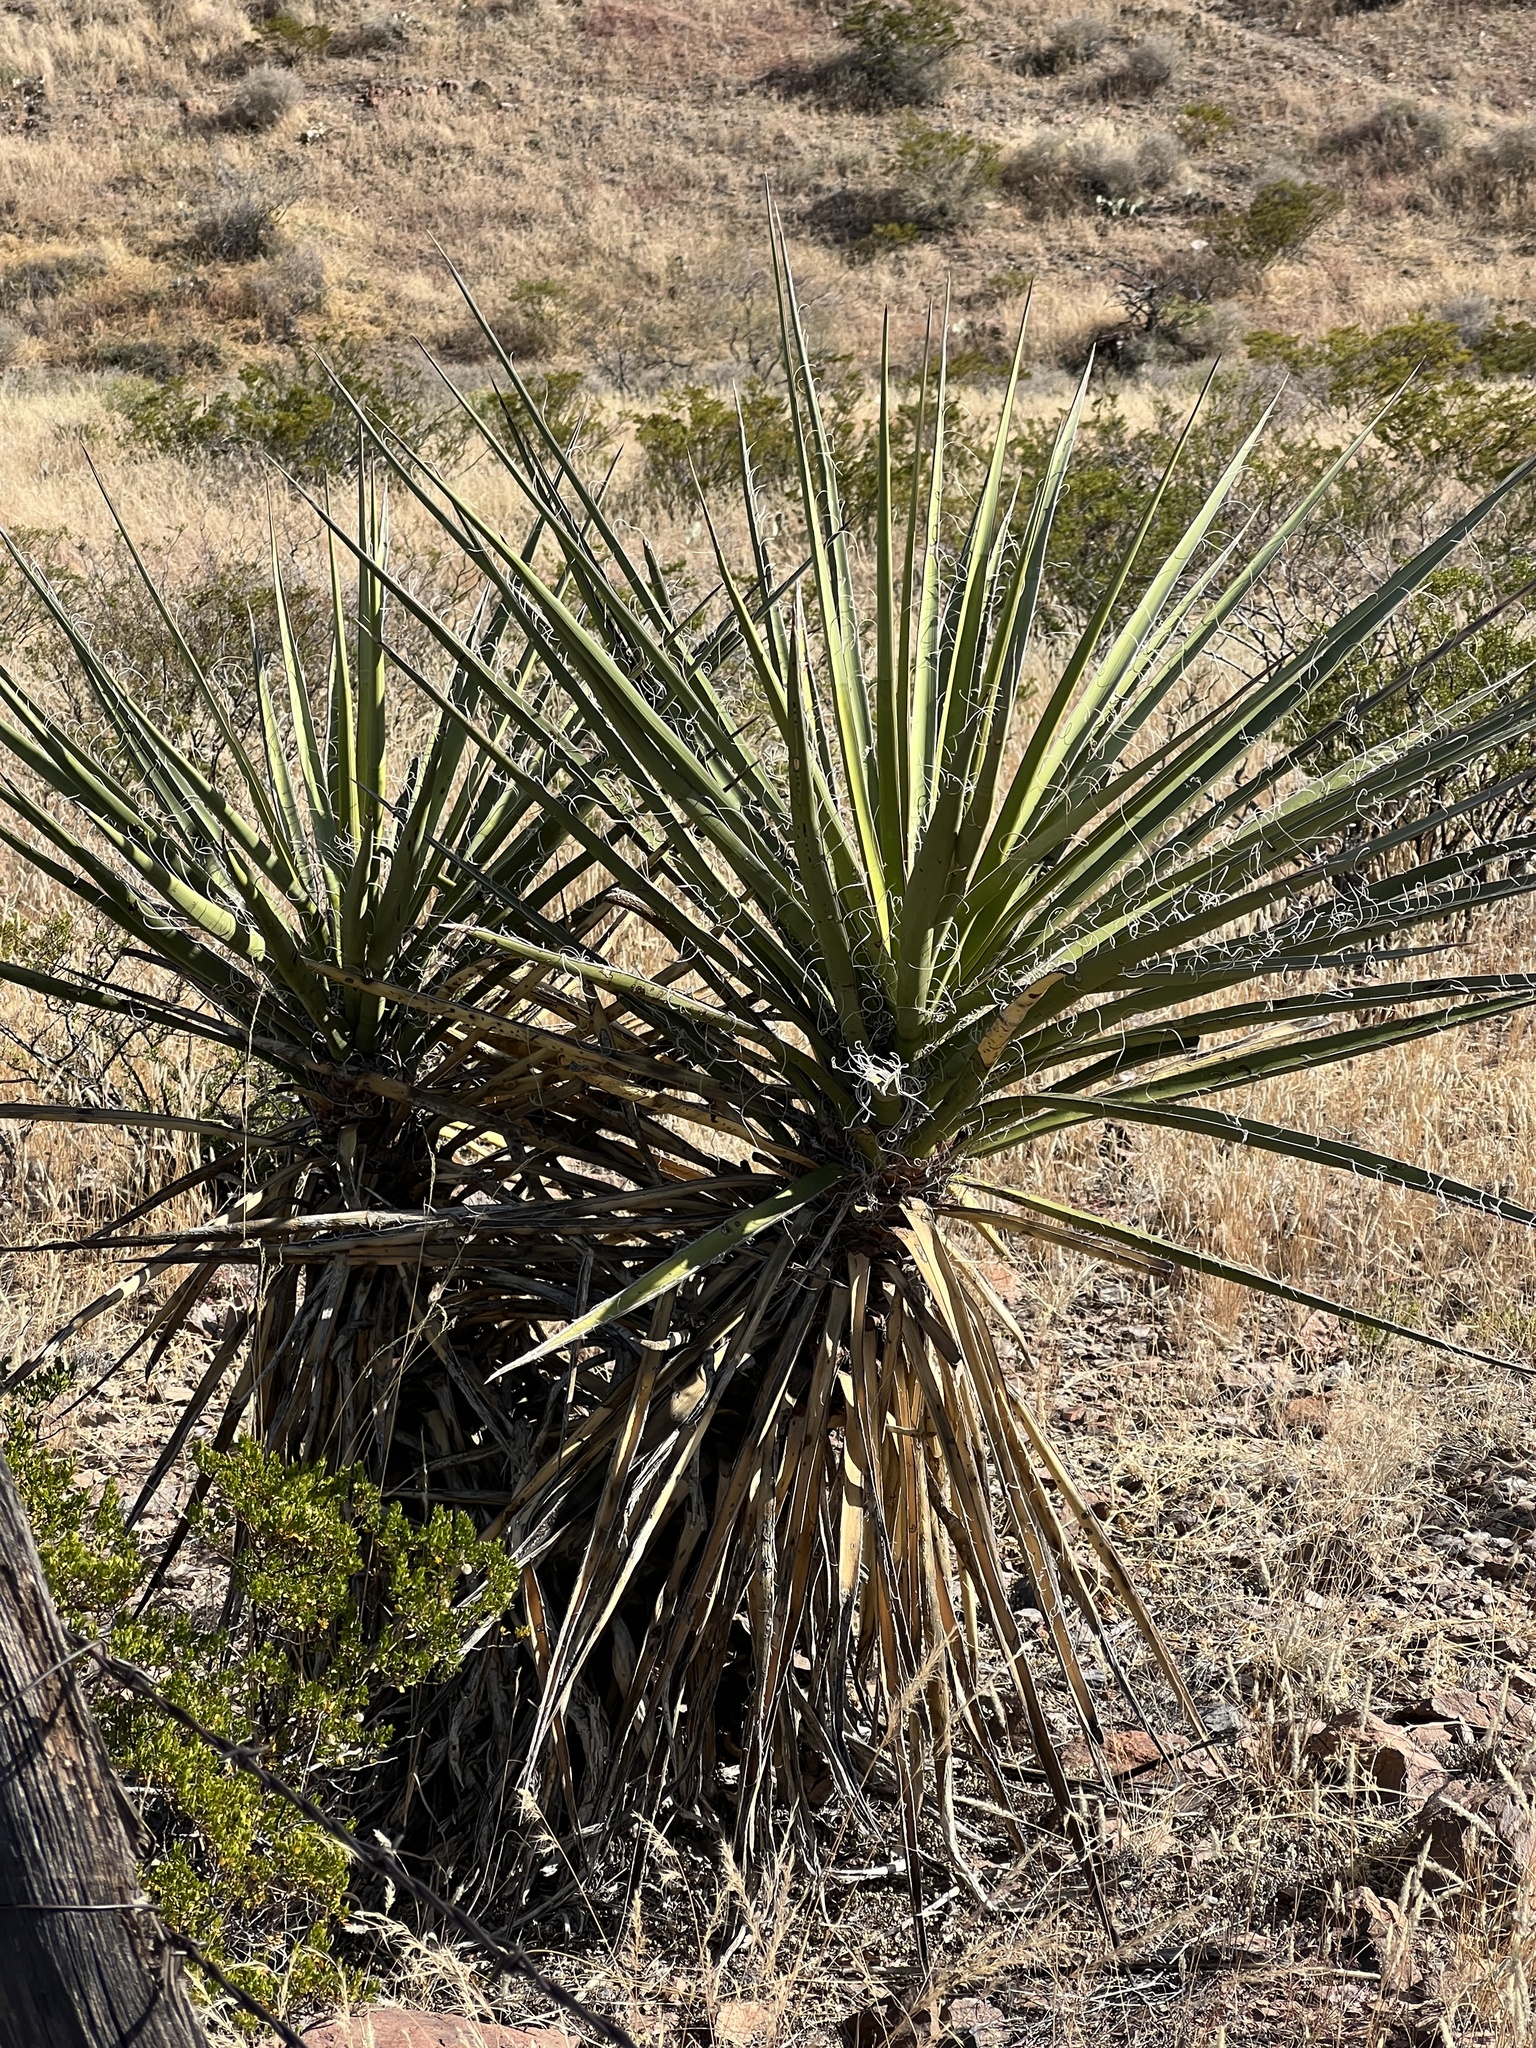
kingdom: Plantae
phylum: Tracheophyta
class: Liliopsida
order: Asparagales
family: Asparagaceae
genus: Yucca
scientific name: Yucca treculiana
